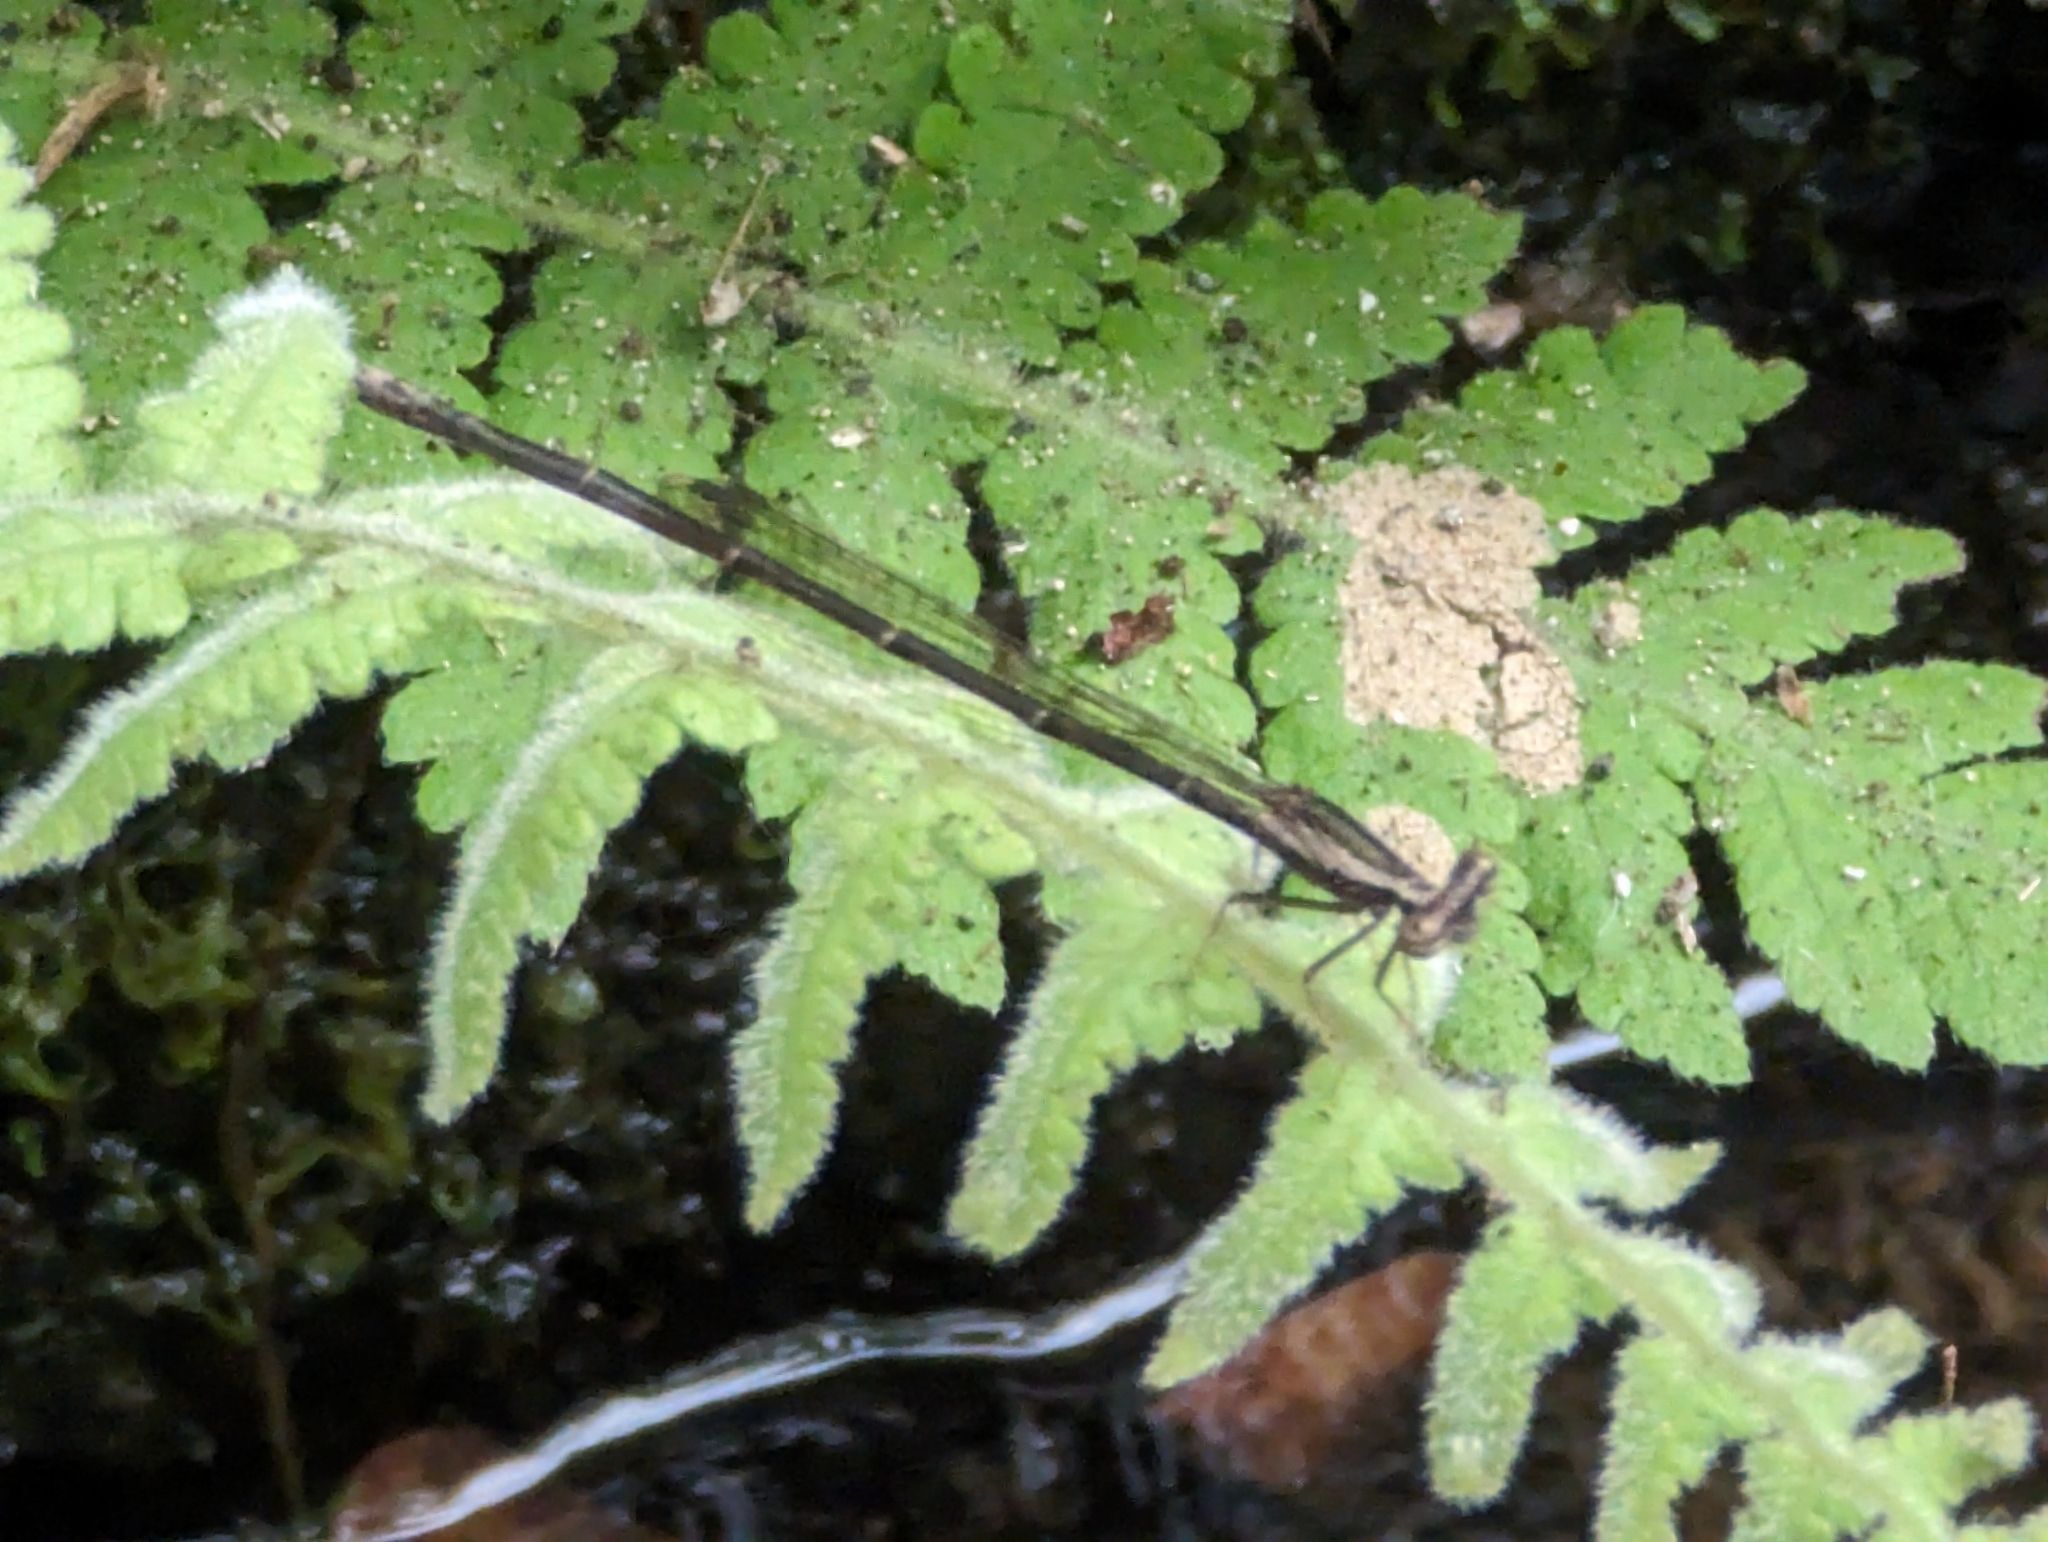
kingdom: Animalia
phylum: Arthropoda
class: Insecta
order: Odonata
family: Platycnemididae
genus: Copera
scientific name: Copera marginipes
